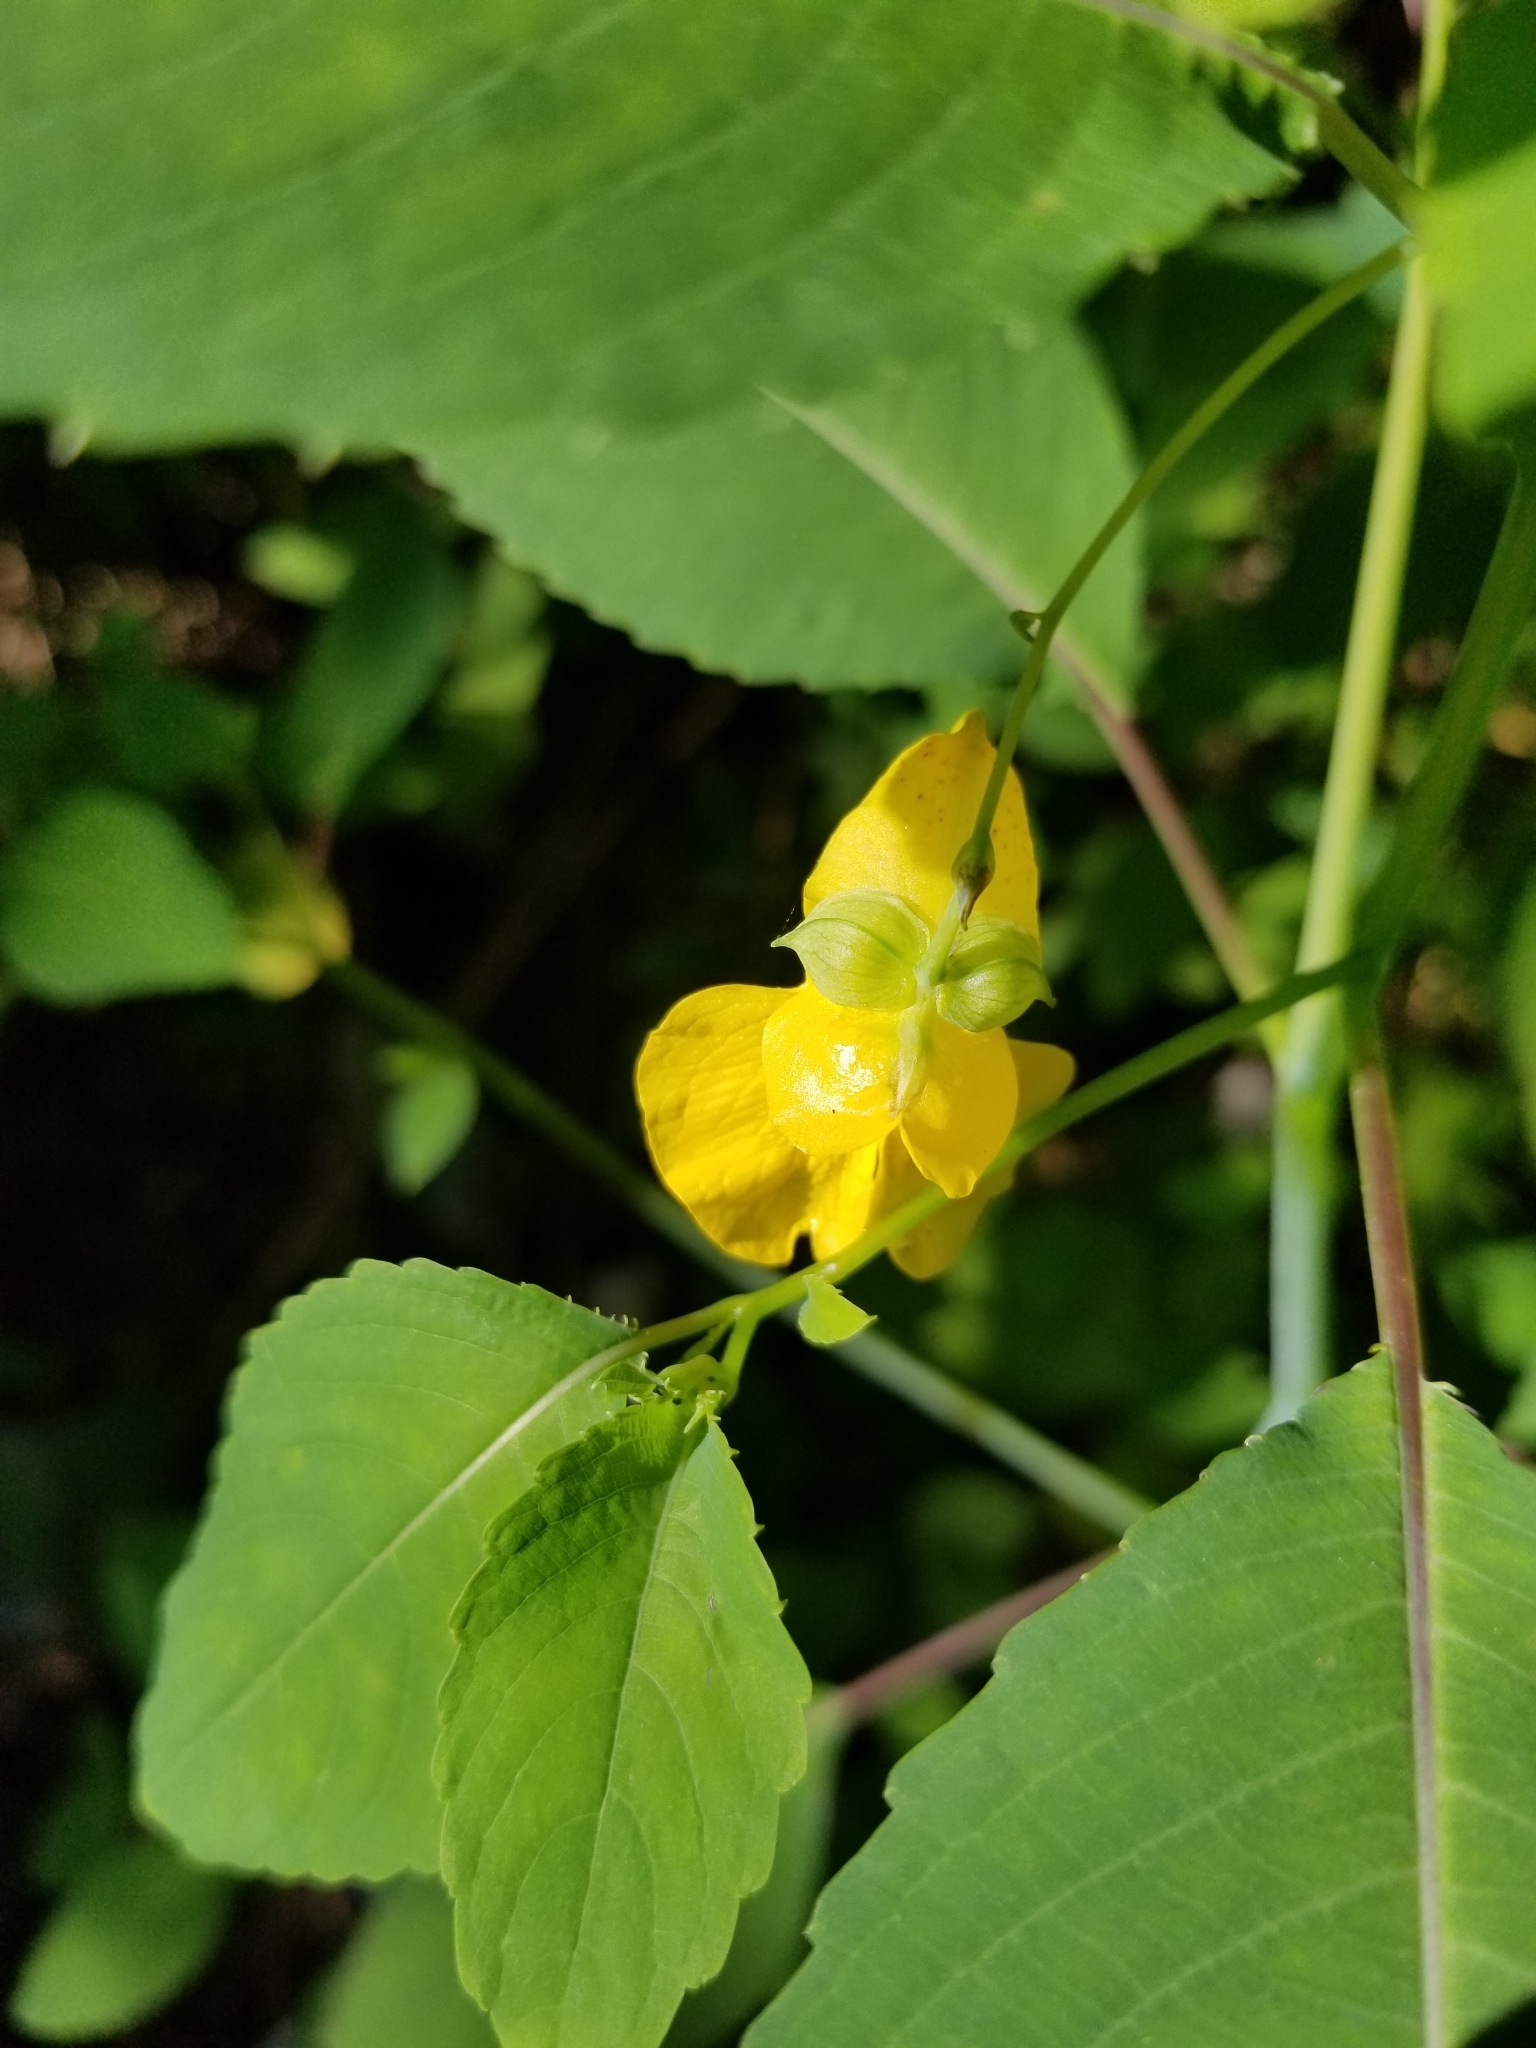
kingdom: Plantae
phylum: Tracheophyta
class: Magnoliopsida
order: Ericales
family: Balsaminaceae
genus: Impatiens
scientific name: Impatiens pallida
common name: Pale snapweed
